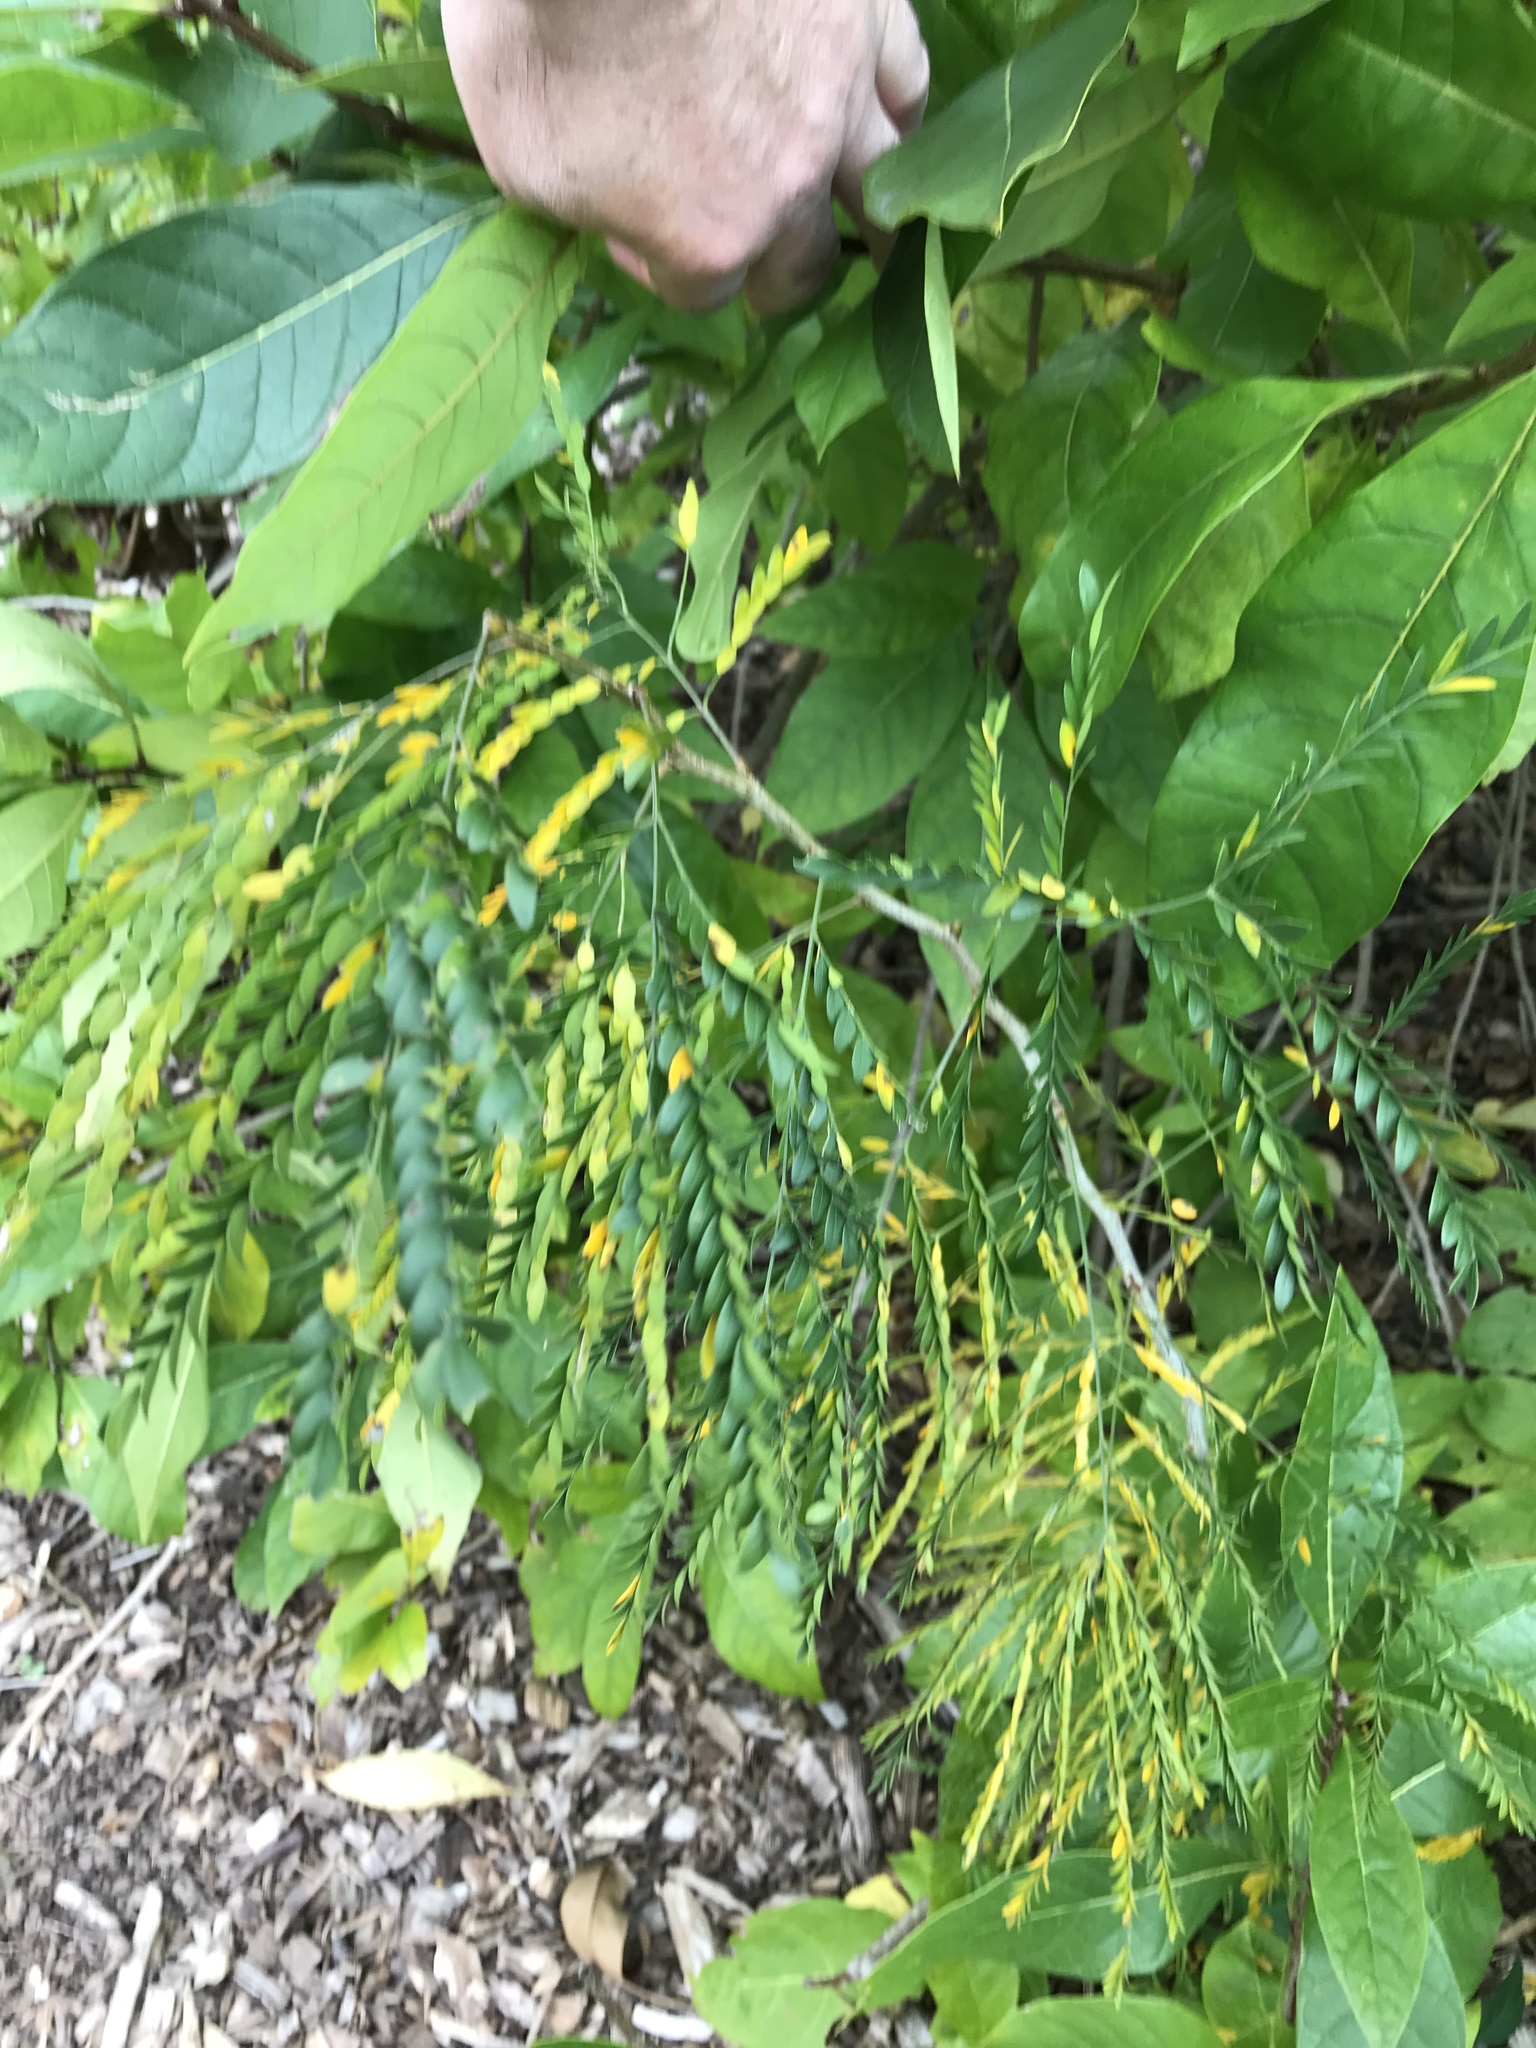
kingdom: Plantae
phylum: Tracheophyta
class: Magnoliopsida
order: Fabales
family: Fabaceae
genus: Gleditsia
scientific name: Gleditsia triacanthos
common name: Common honeylocust
